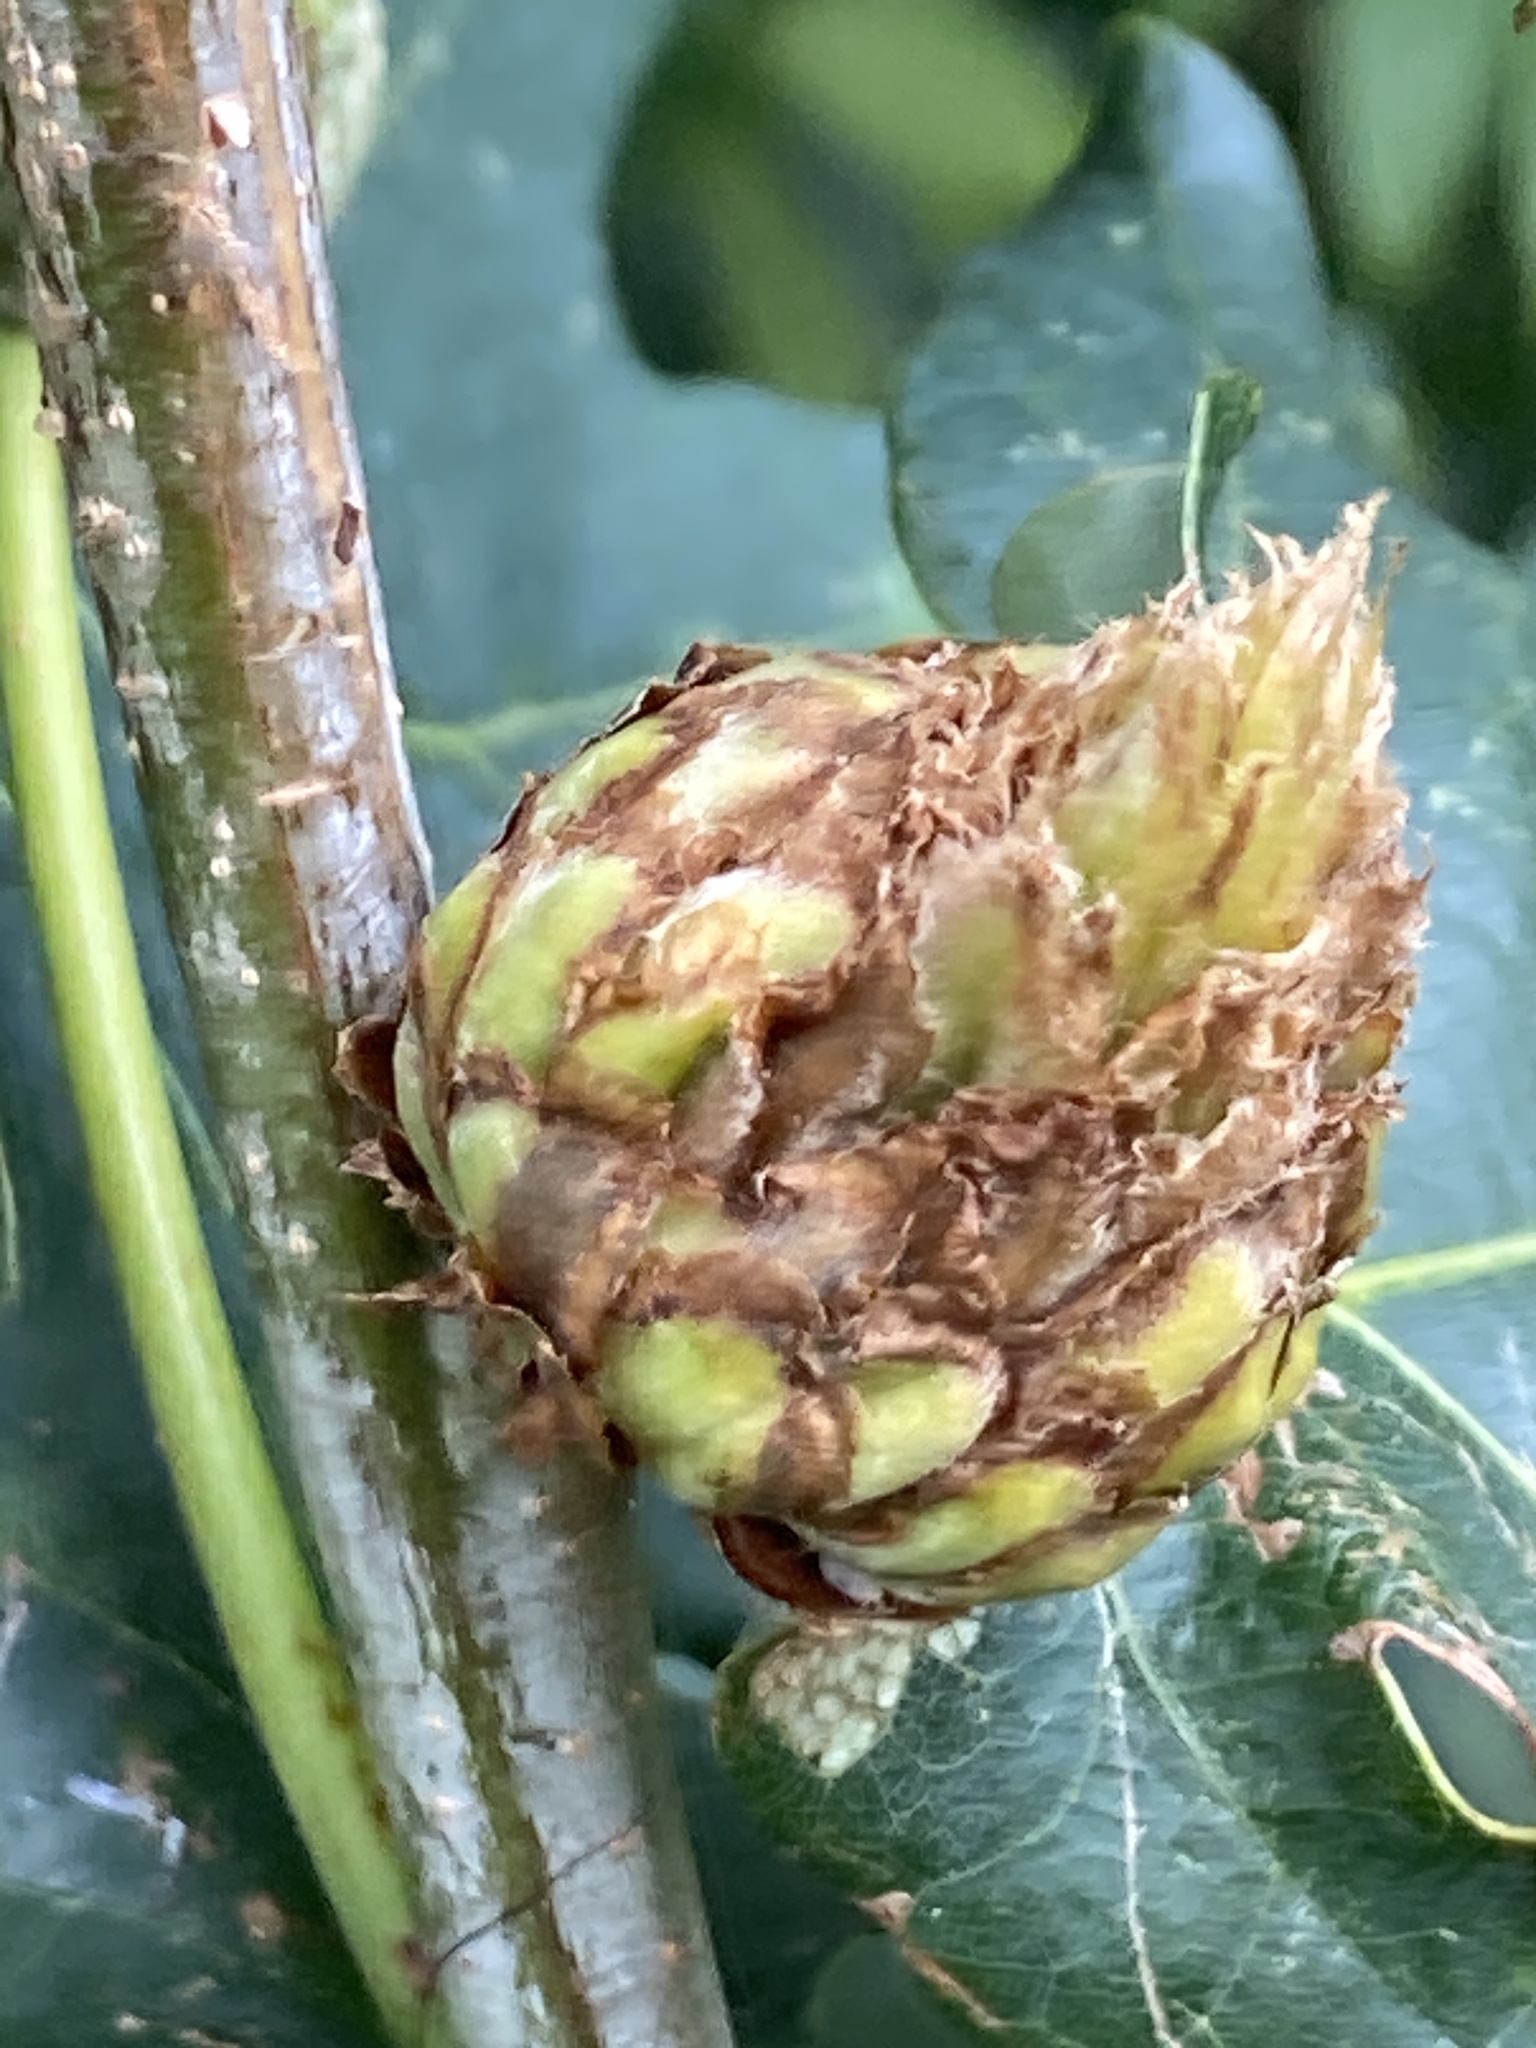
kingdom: Animalia
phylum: Arthropoda
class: Insecta
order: Hymenoptera
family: Cynipidae
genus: Andricus
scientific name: Andricus foecundatrix
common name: Artichoke gall
